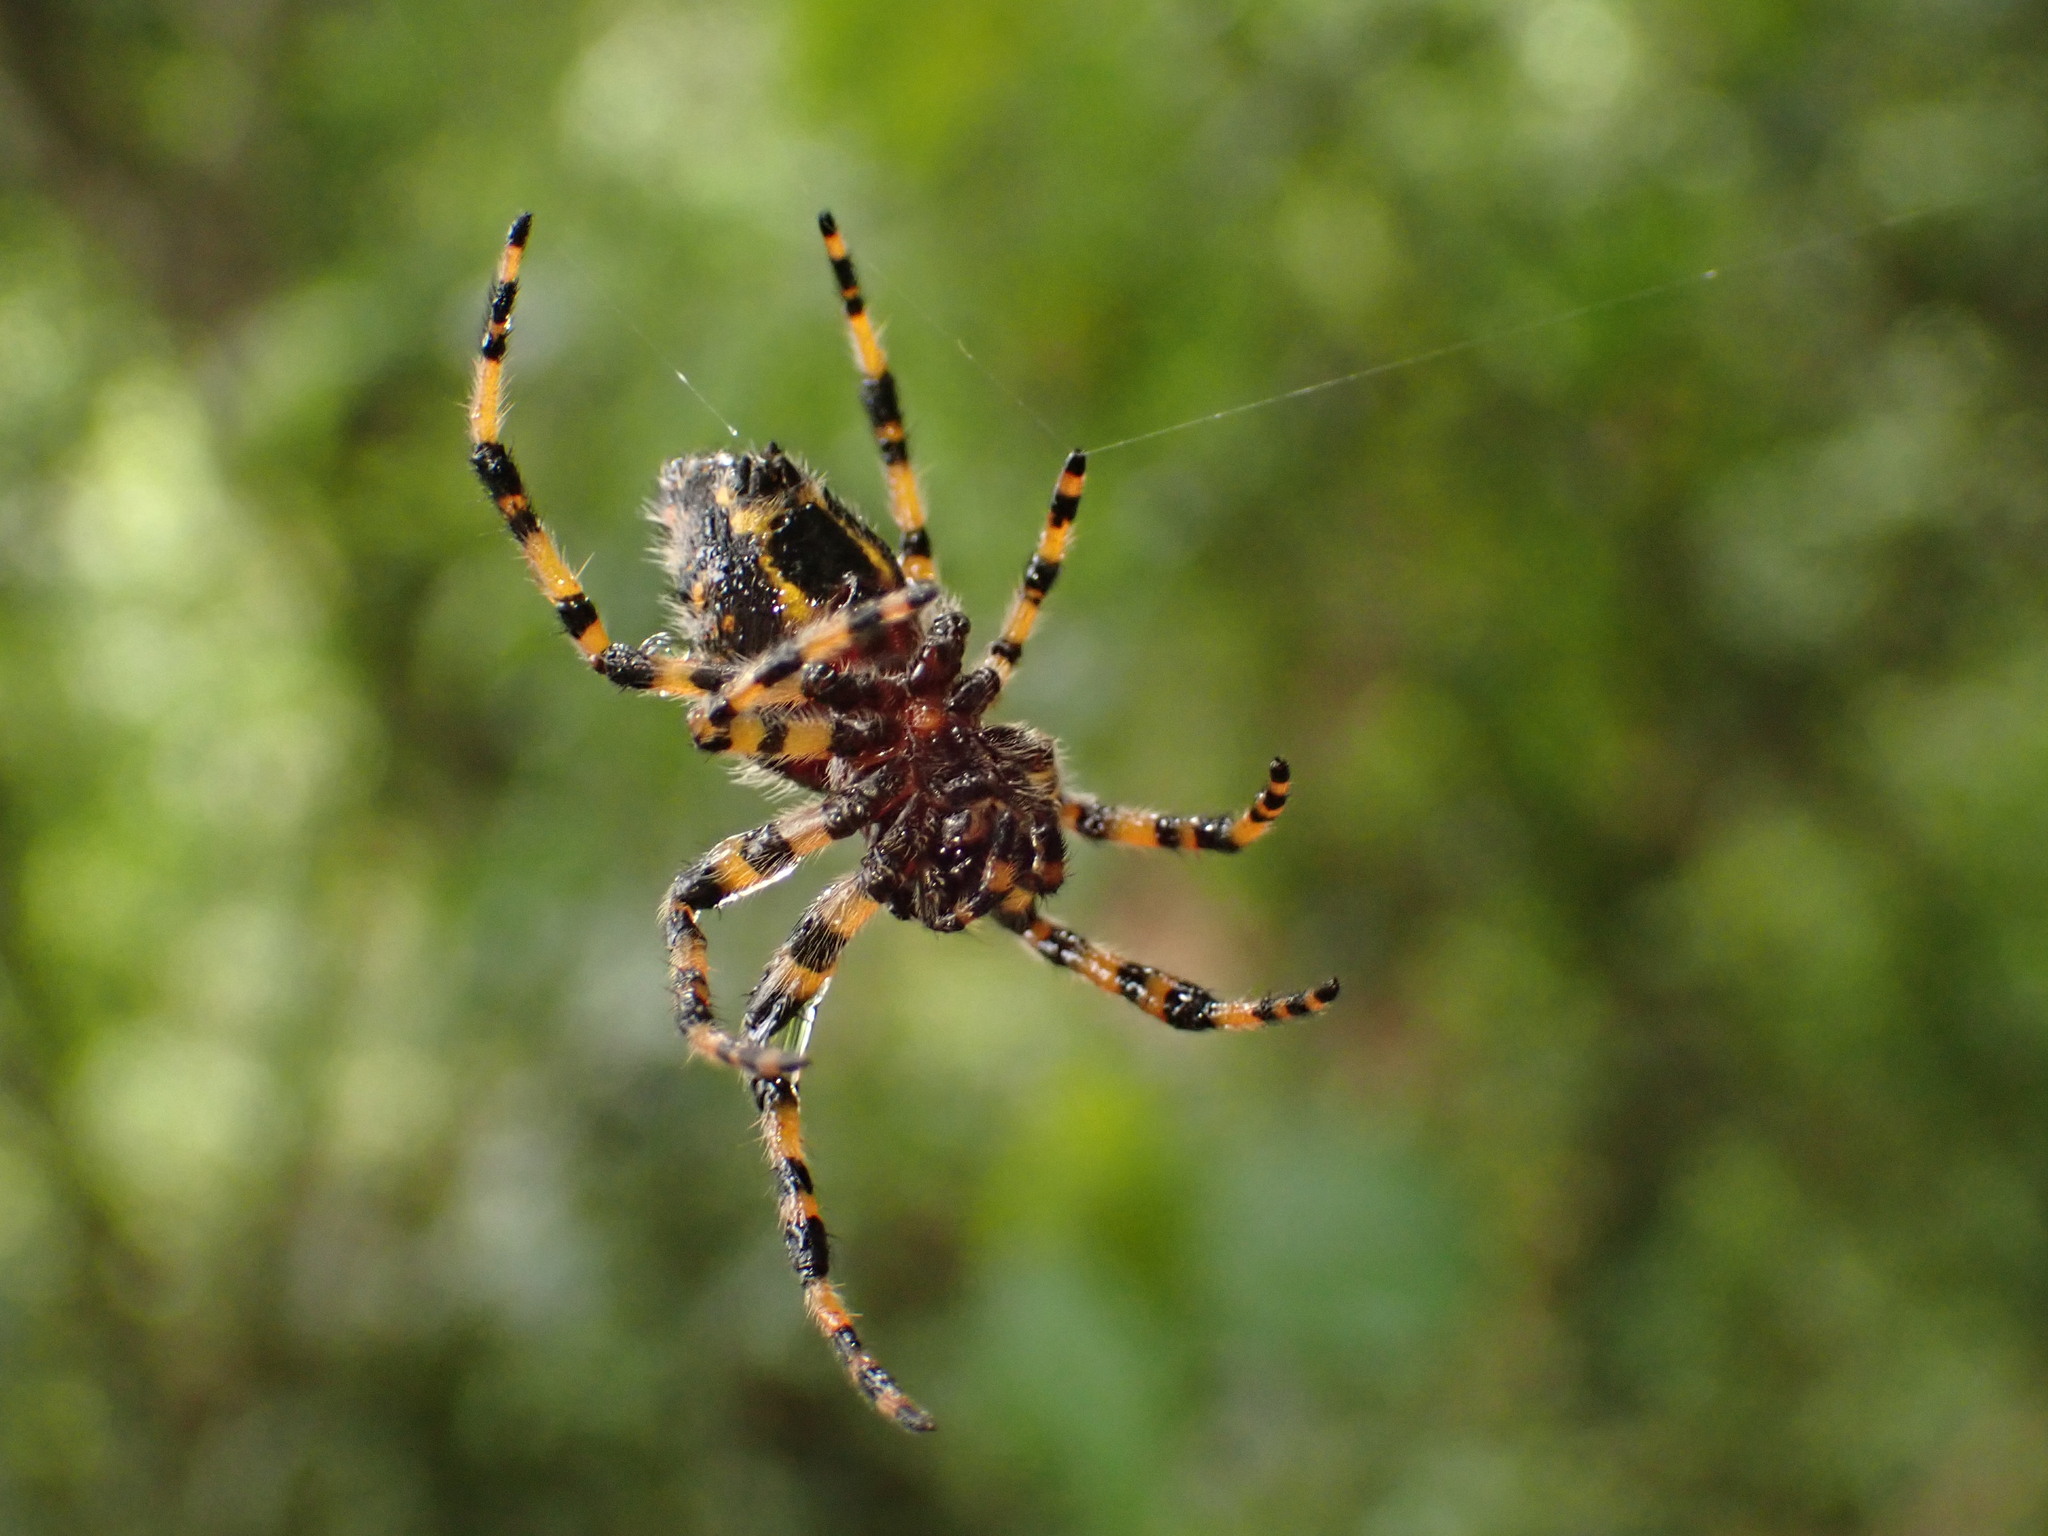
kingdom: Animalia
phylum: Arthropoda
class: Arachnida
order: Araneae
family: Araneidae
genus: Alpaida
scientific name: Alpaida alticeps
